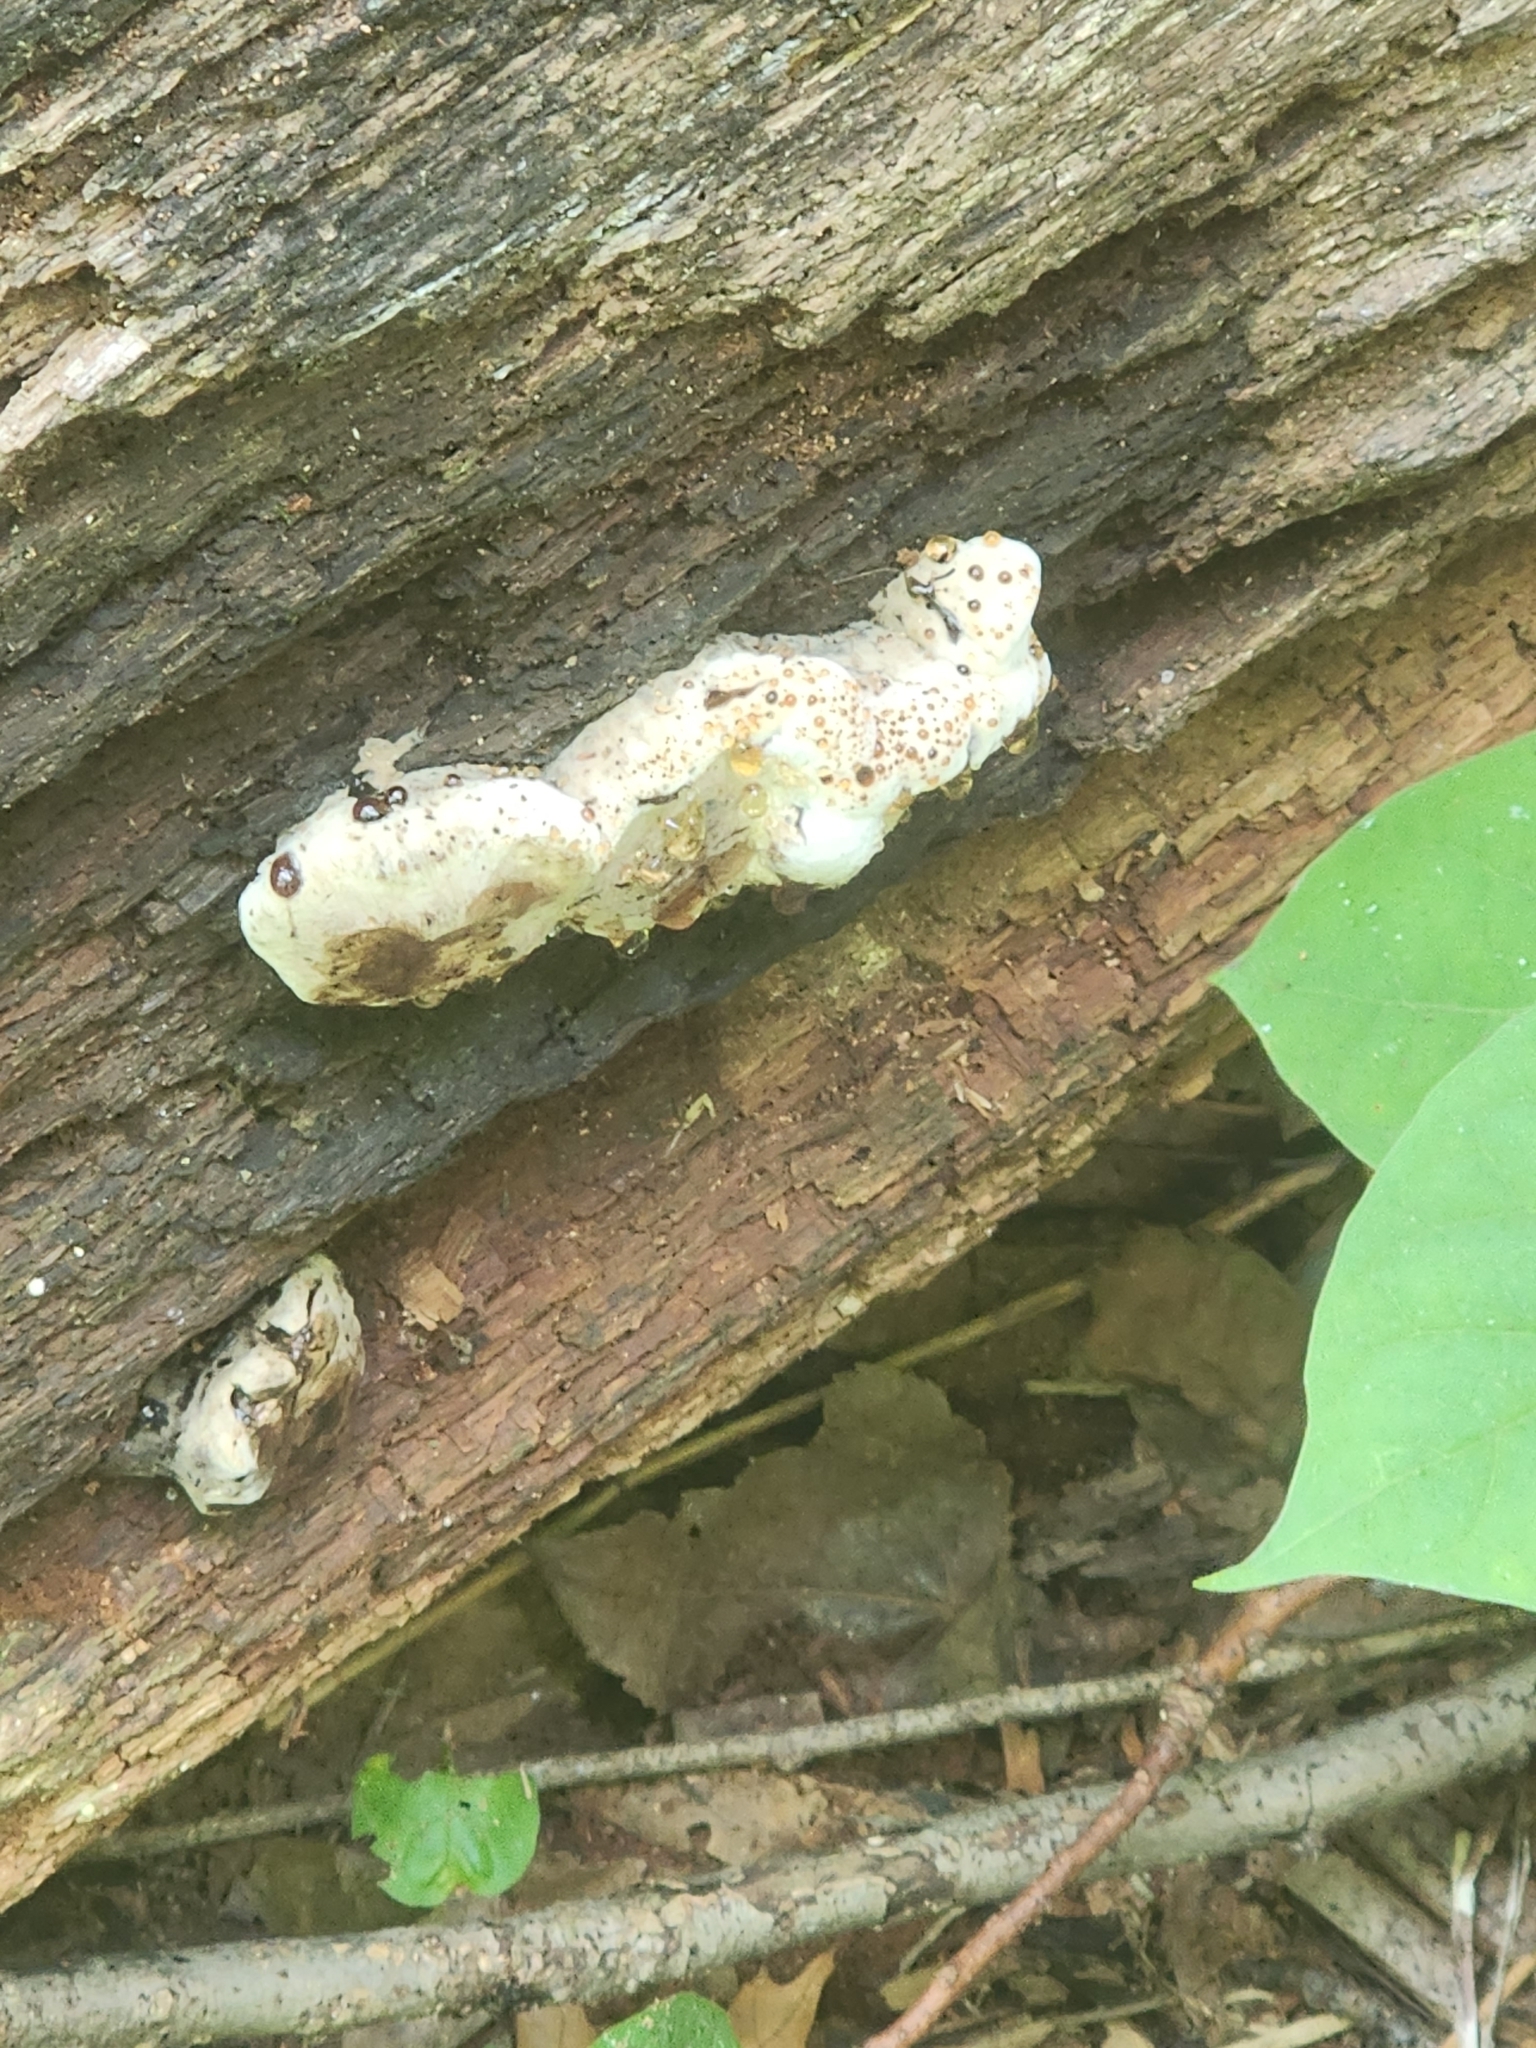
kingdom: Fungi
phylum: Ascomycota
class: Sordariomycetes
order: Boliniales
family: Boliniaceae
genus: Camarops
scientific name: Camarops petersii
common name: Dog's nose fungus
